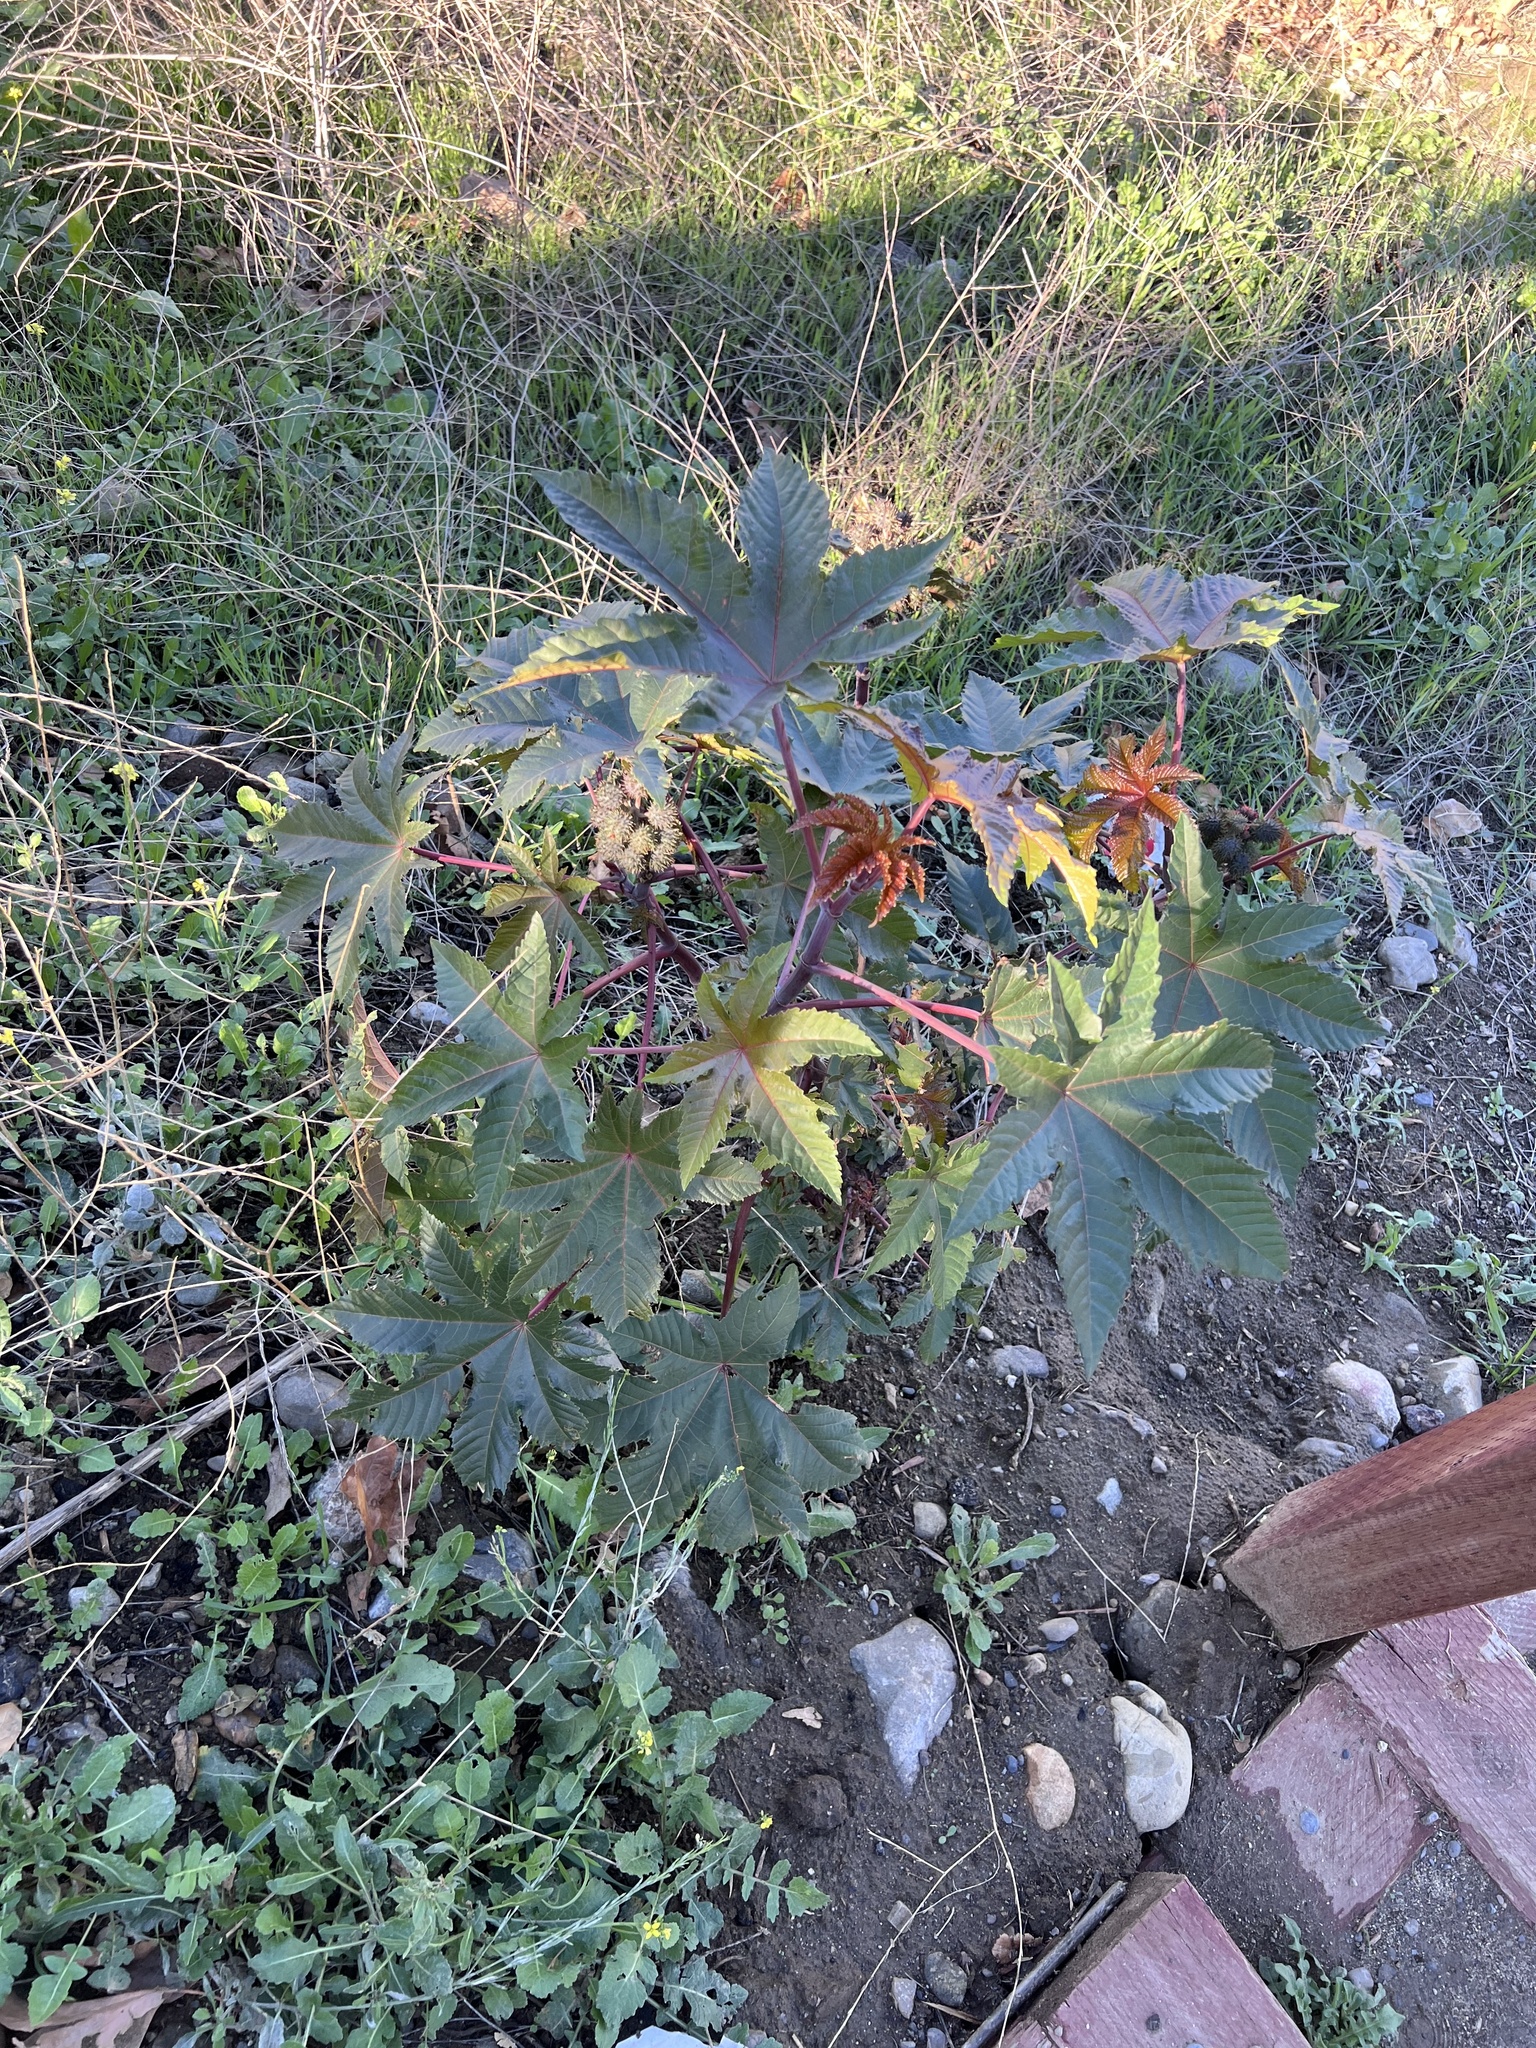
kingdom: Plantae
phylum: Tracheophyta
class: Magnoliopsida
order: Malpighiales
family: Euphorbiaceae
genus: Ricinus
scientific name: Ricinus communis
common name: Castor-oil-plant
